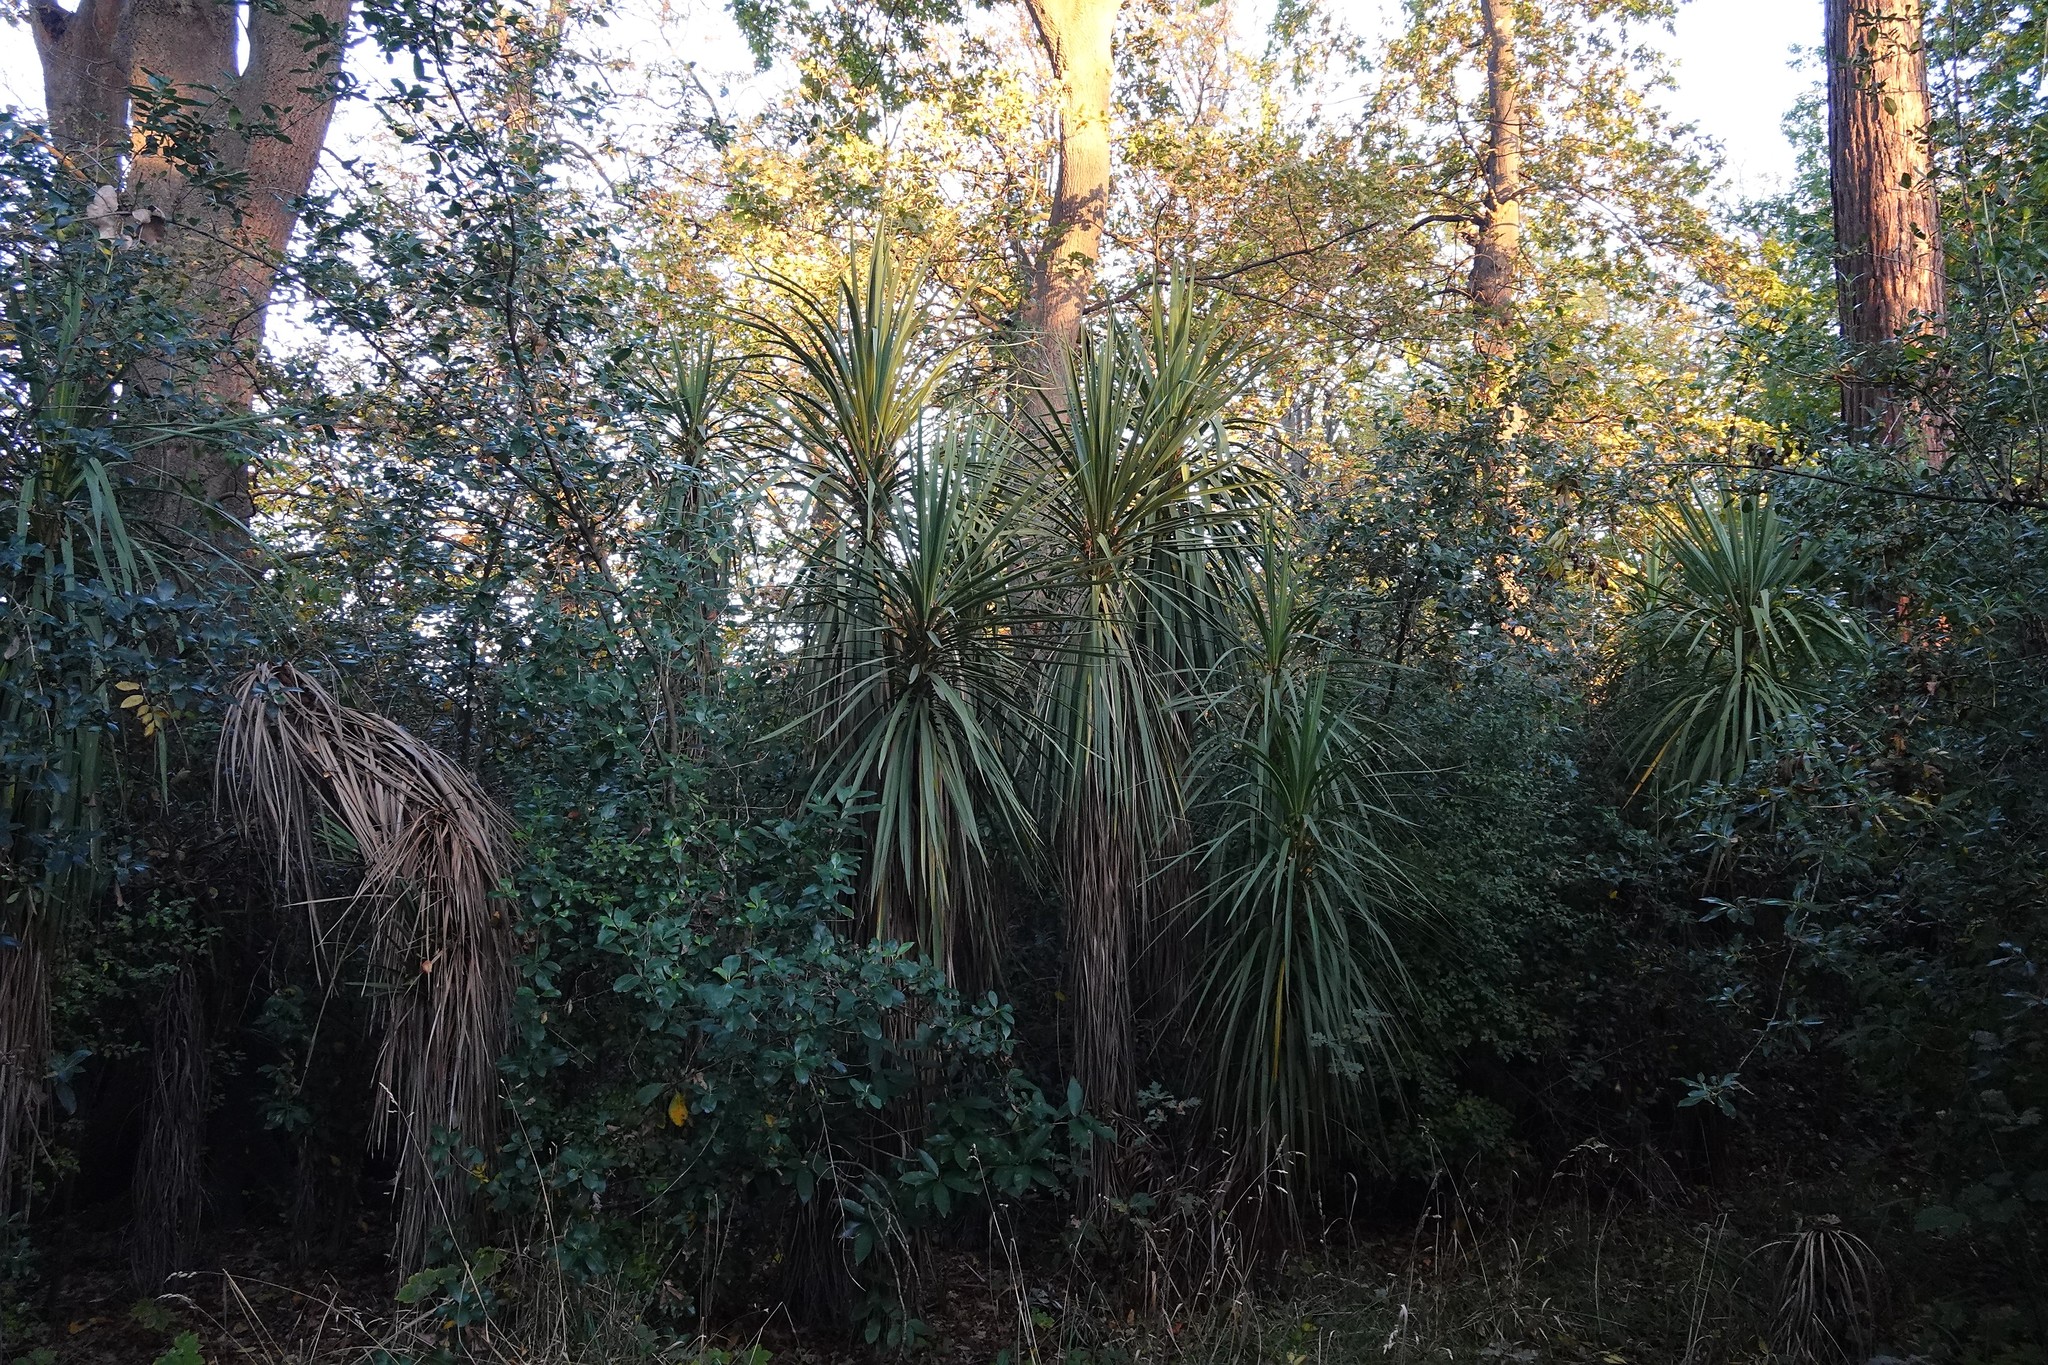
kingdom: Plantae
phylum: Tracheophyta
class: Liliopsida
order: Asparagales
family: Asparagaceae
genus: Cordyline
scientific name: Cordyline australis
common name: Cabbage-palm
